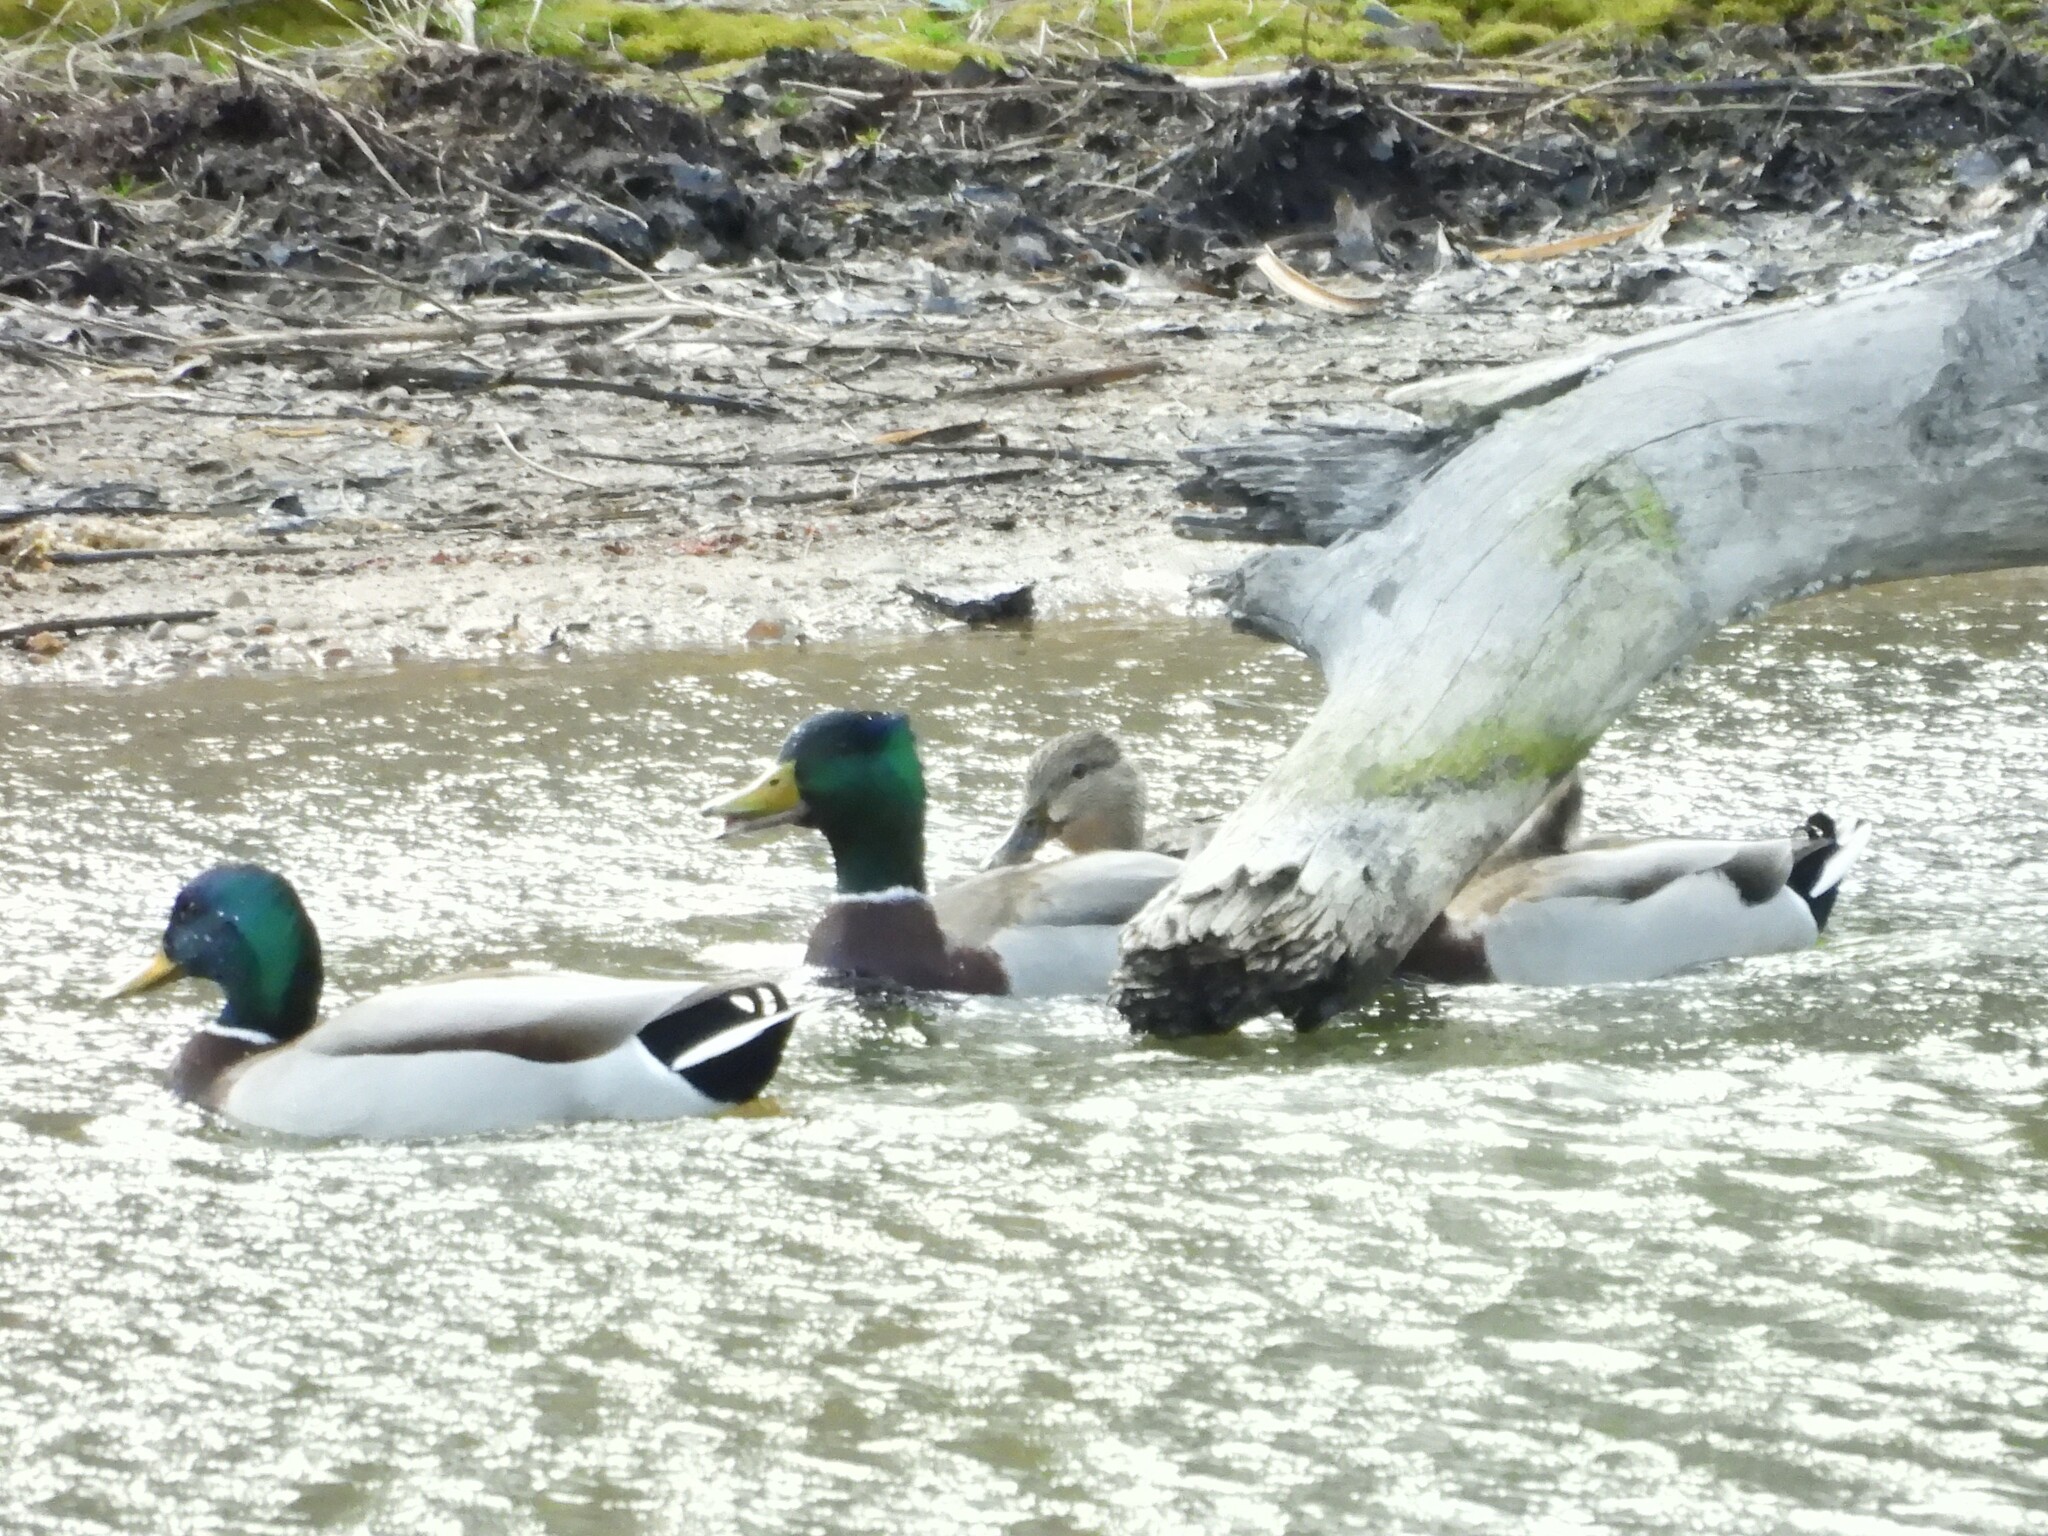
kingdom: Animalia
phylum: Chordata
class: Aves
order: Anseriformes
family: Anatidae
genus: Anas
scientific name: Anas platyrhynchos
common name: Mallard
